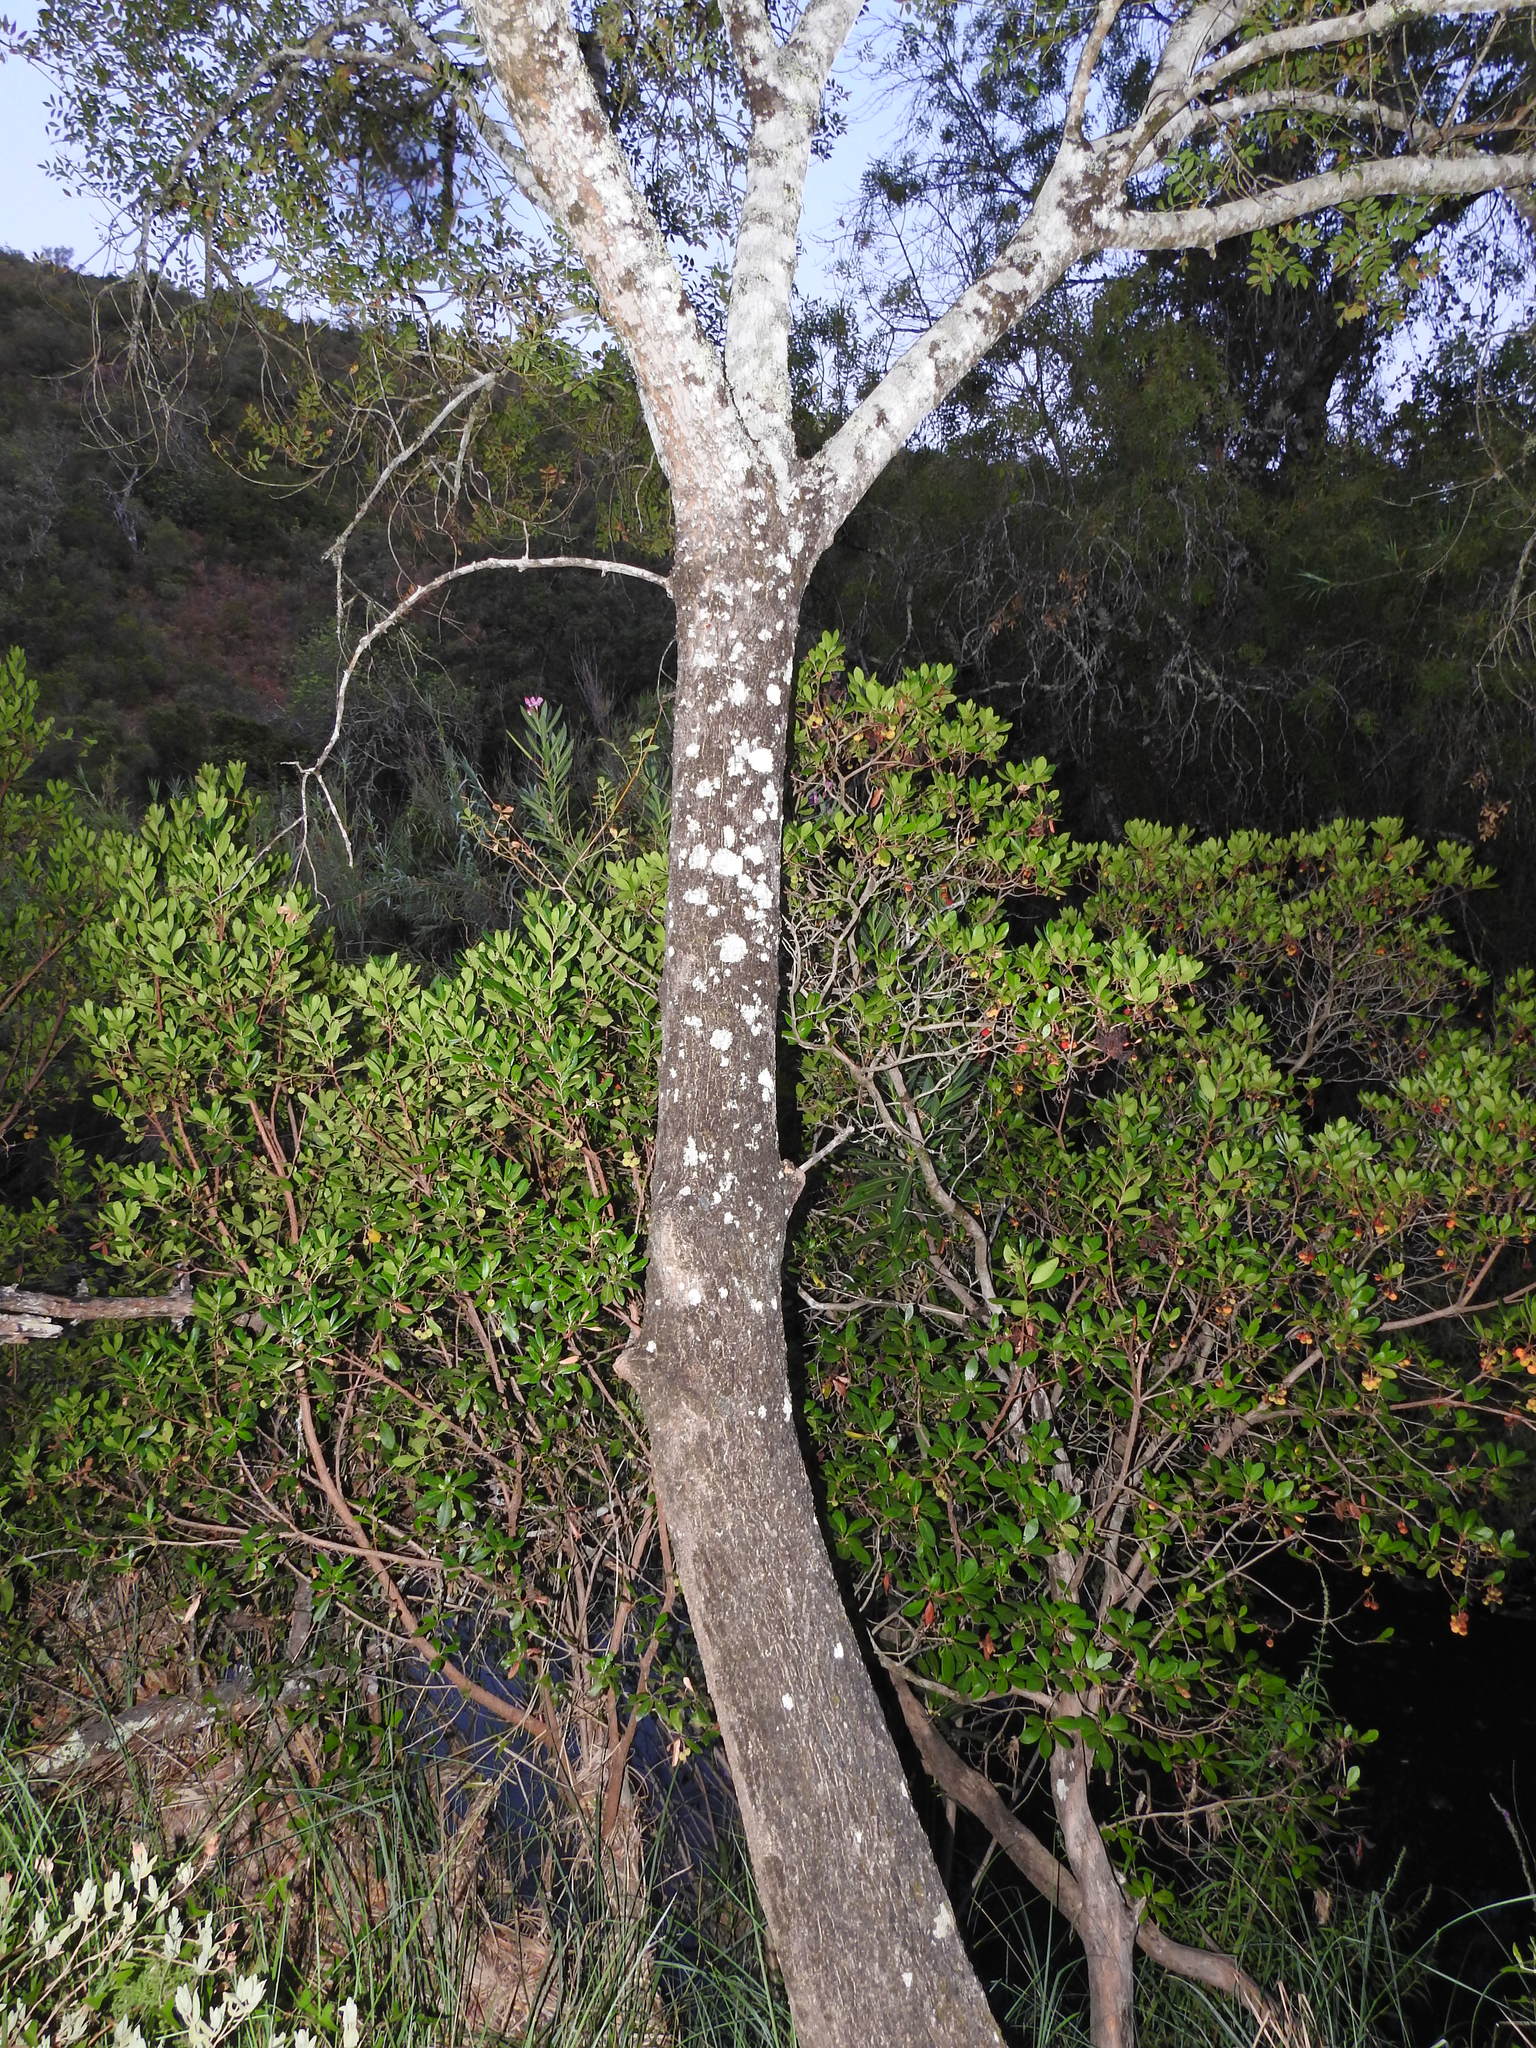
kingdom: Plantae
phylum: Tracheophyta
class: Magnoliopsida
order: Lamiales
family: Oleaceae
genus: Fraxinus
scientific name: Fraxinus angustifolia
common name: Narrow-leafed ash
